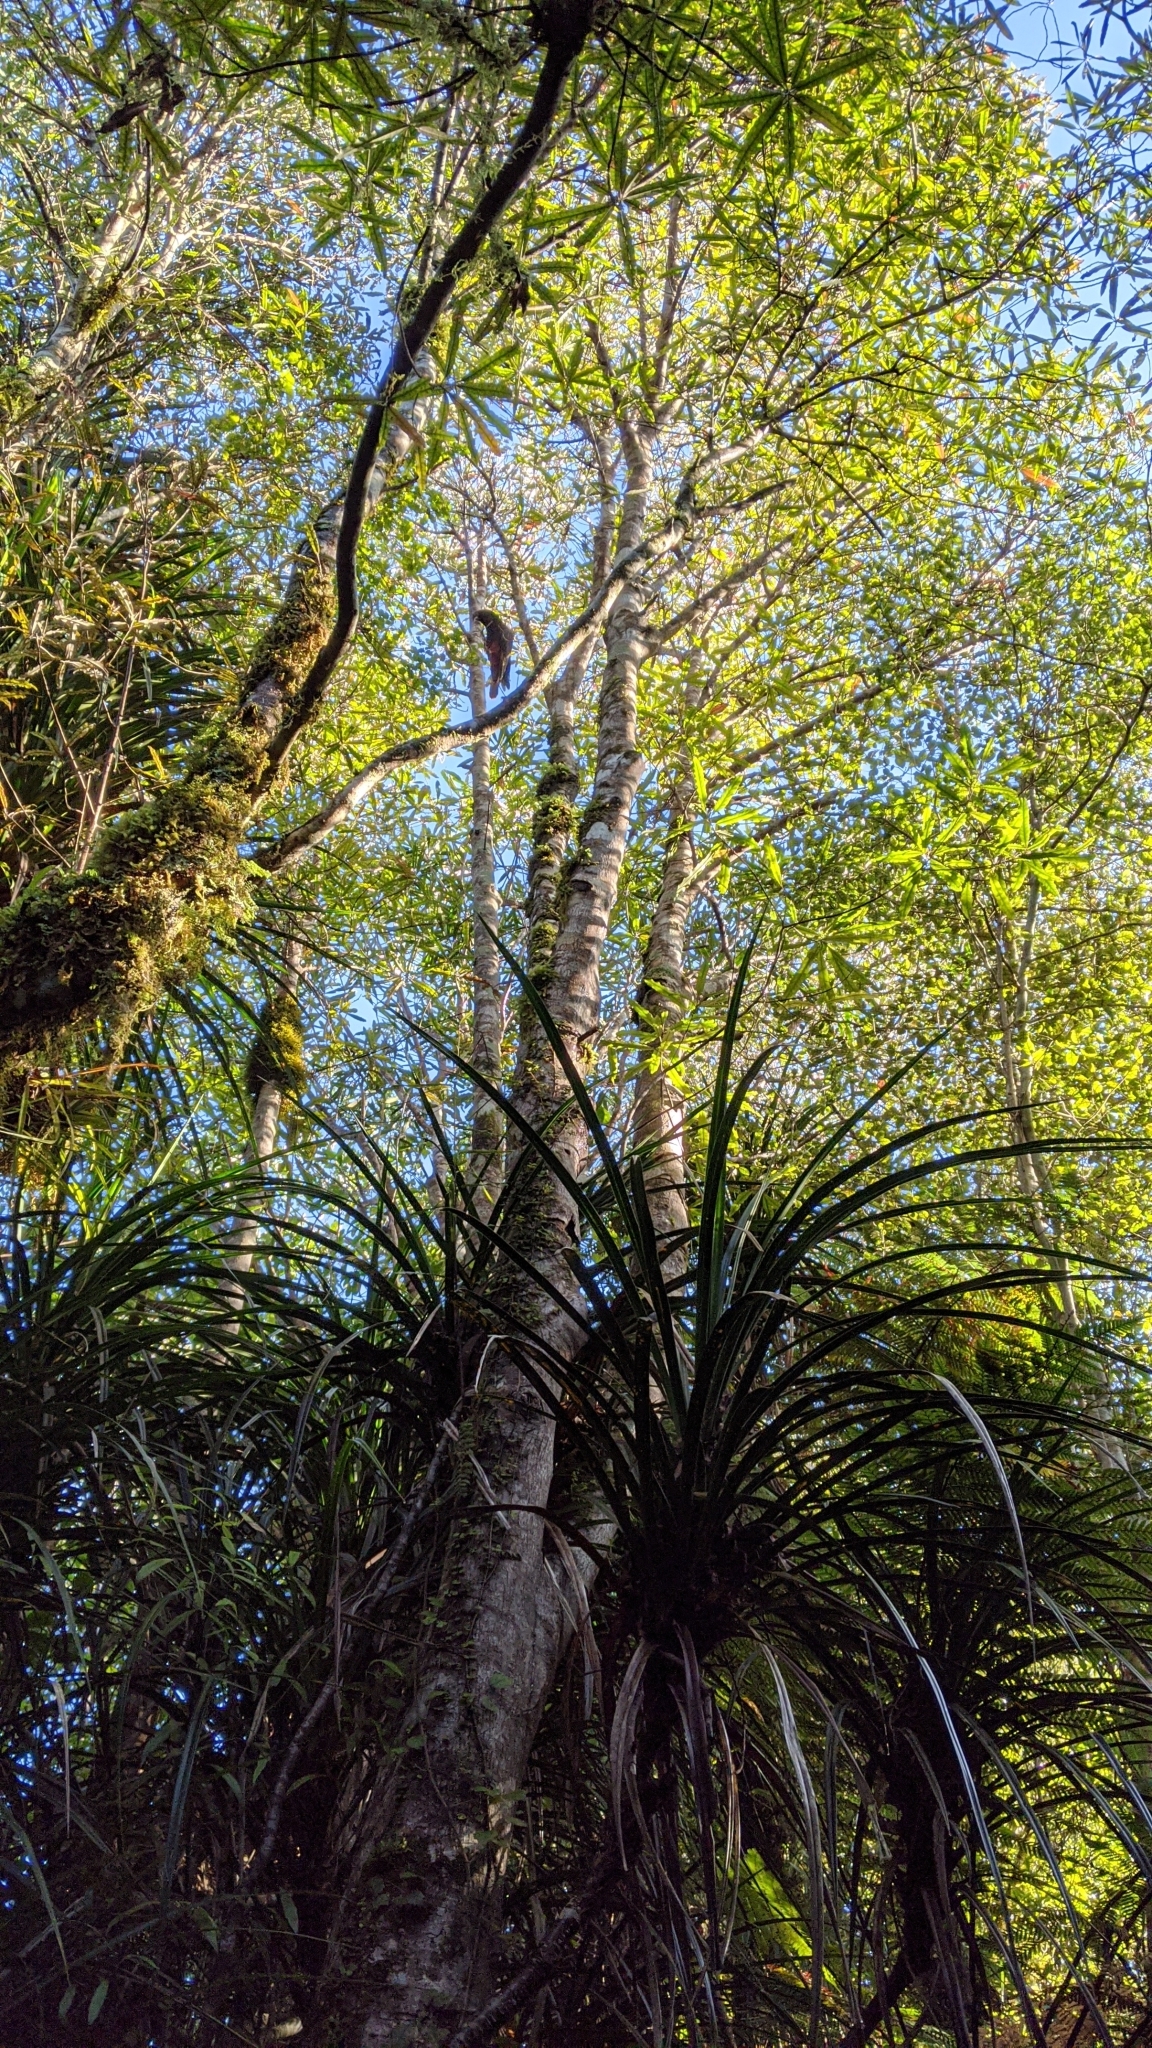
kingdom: Animalia
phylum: Chordata
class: Aves
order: Psittaciformes
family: Psittacidae
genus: Nestor
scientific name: Nestor meridionalis
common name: New zealand kaka
